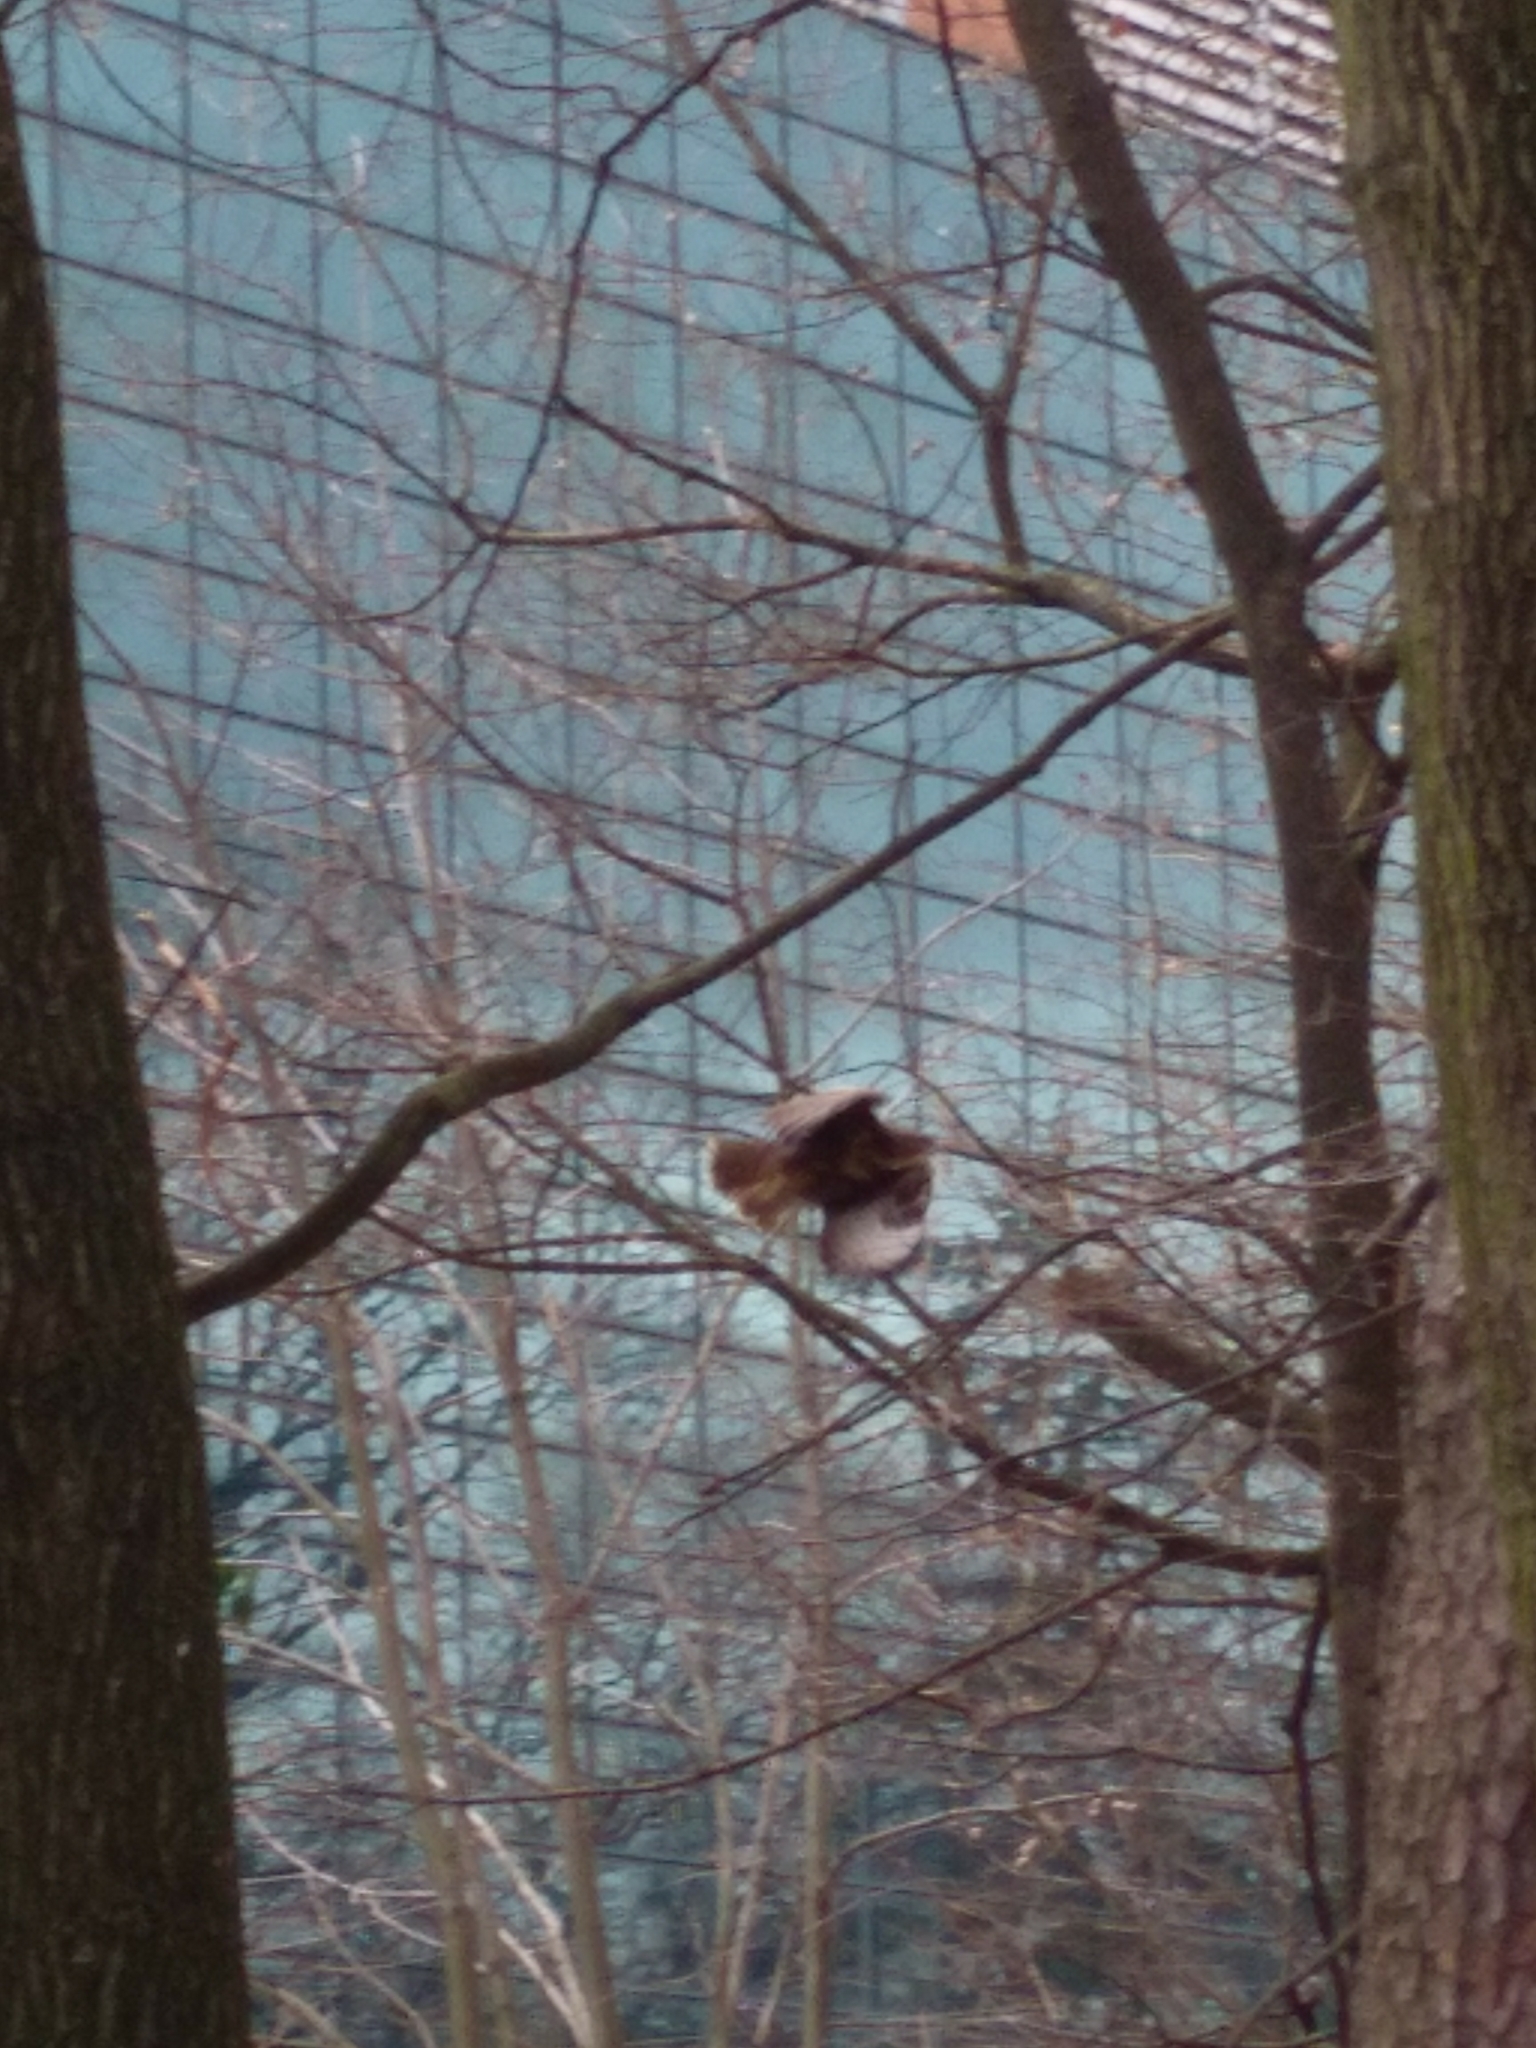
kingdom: Animalia
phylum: Chordata
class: Aves
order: Accipitriformes
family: Accipitridae
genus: Buteo
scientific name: Buteo buteo
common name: Common buzzard
